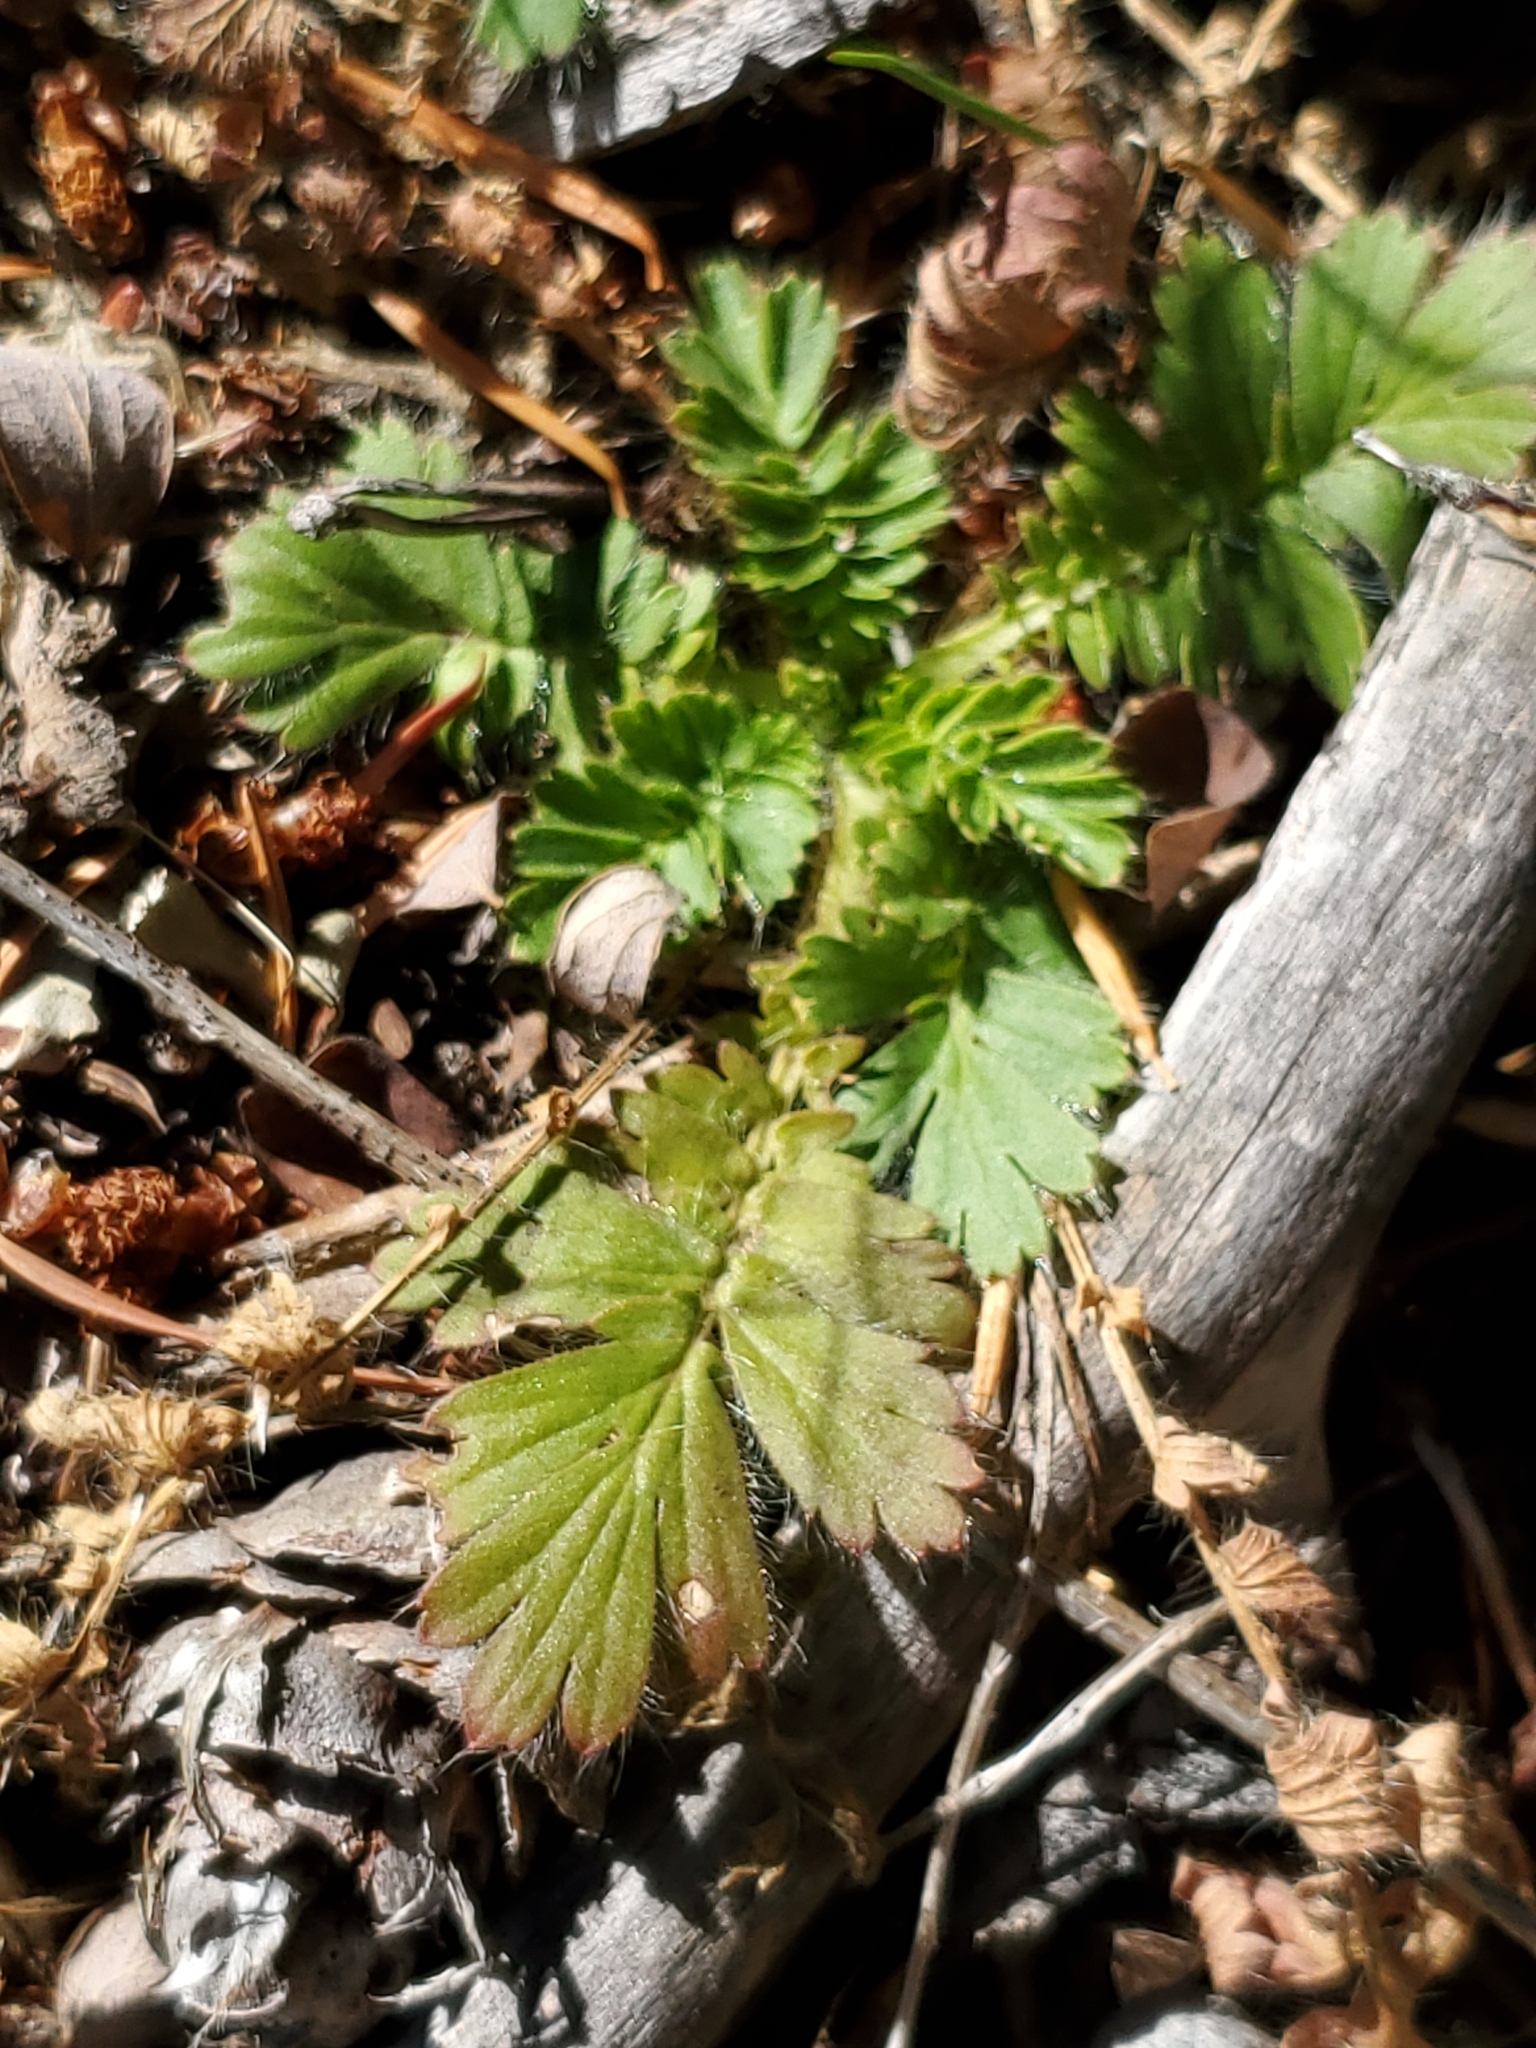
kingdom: Plantae
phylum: Tracheophyta
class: Magnoliopsida
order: Rosales
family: Rosaceae
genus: Geum
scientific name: Geum triflorum
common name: Old man's whiskers
